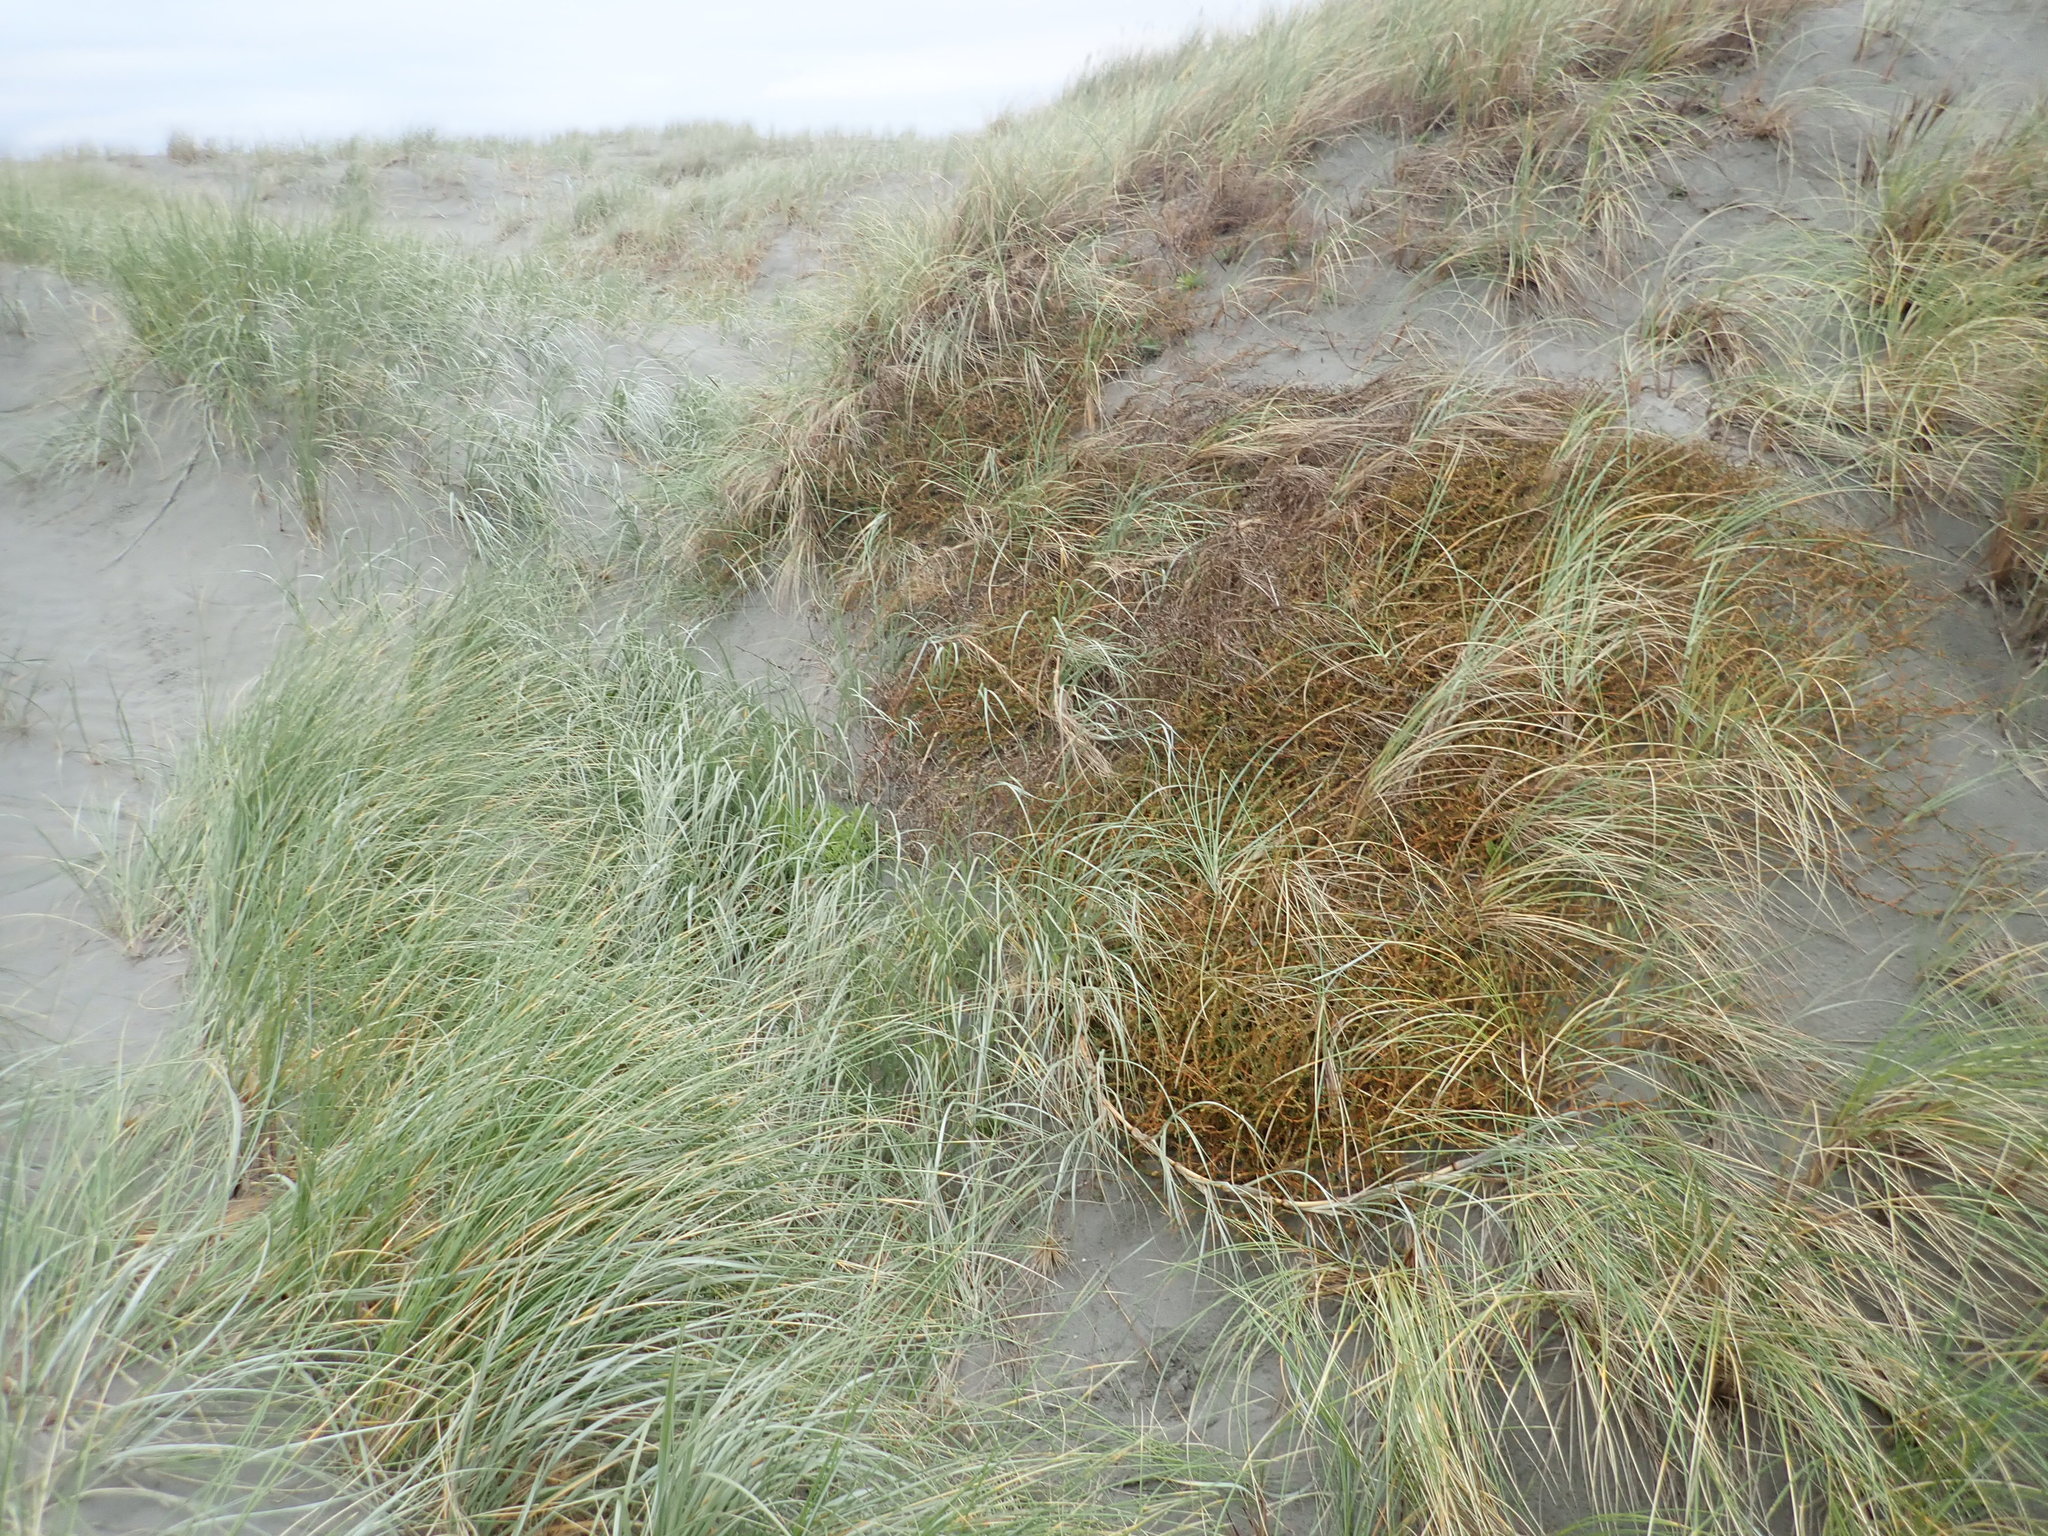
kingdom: Plantae
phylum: Tracheophyta
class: Magnoliopsida
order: Gentianales
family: Rubiaceae
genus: Coprosma
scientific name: Coprosma acerosa
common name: Sand coprosma
